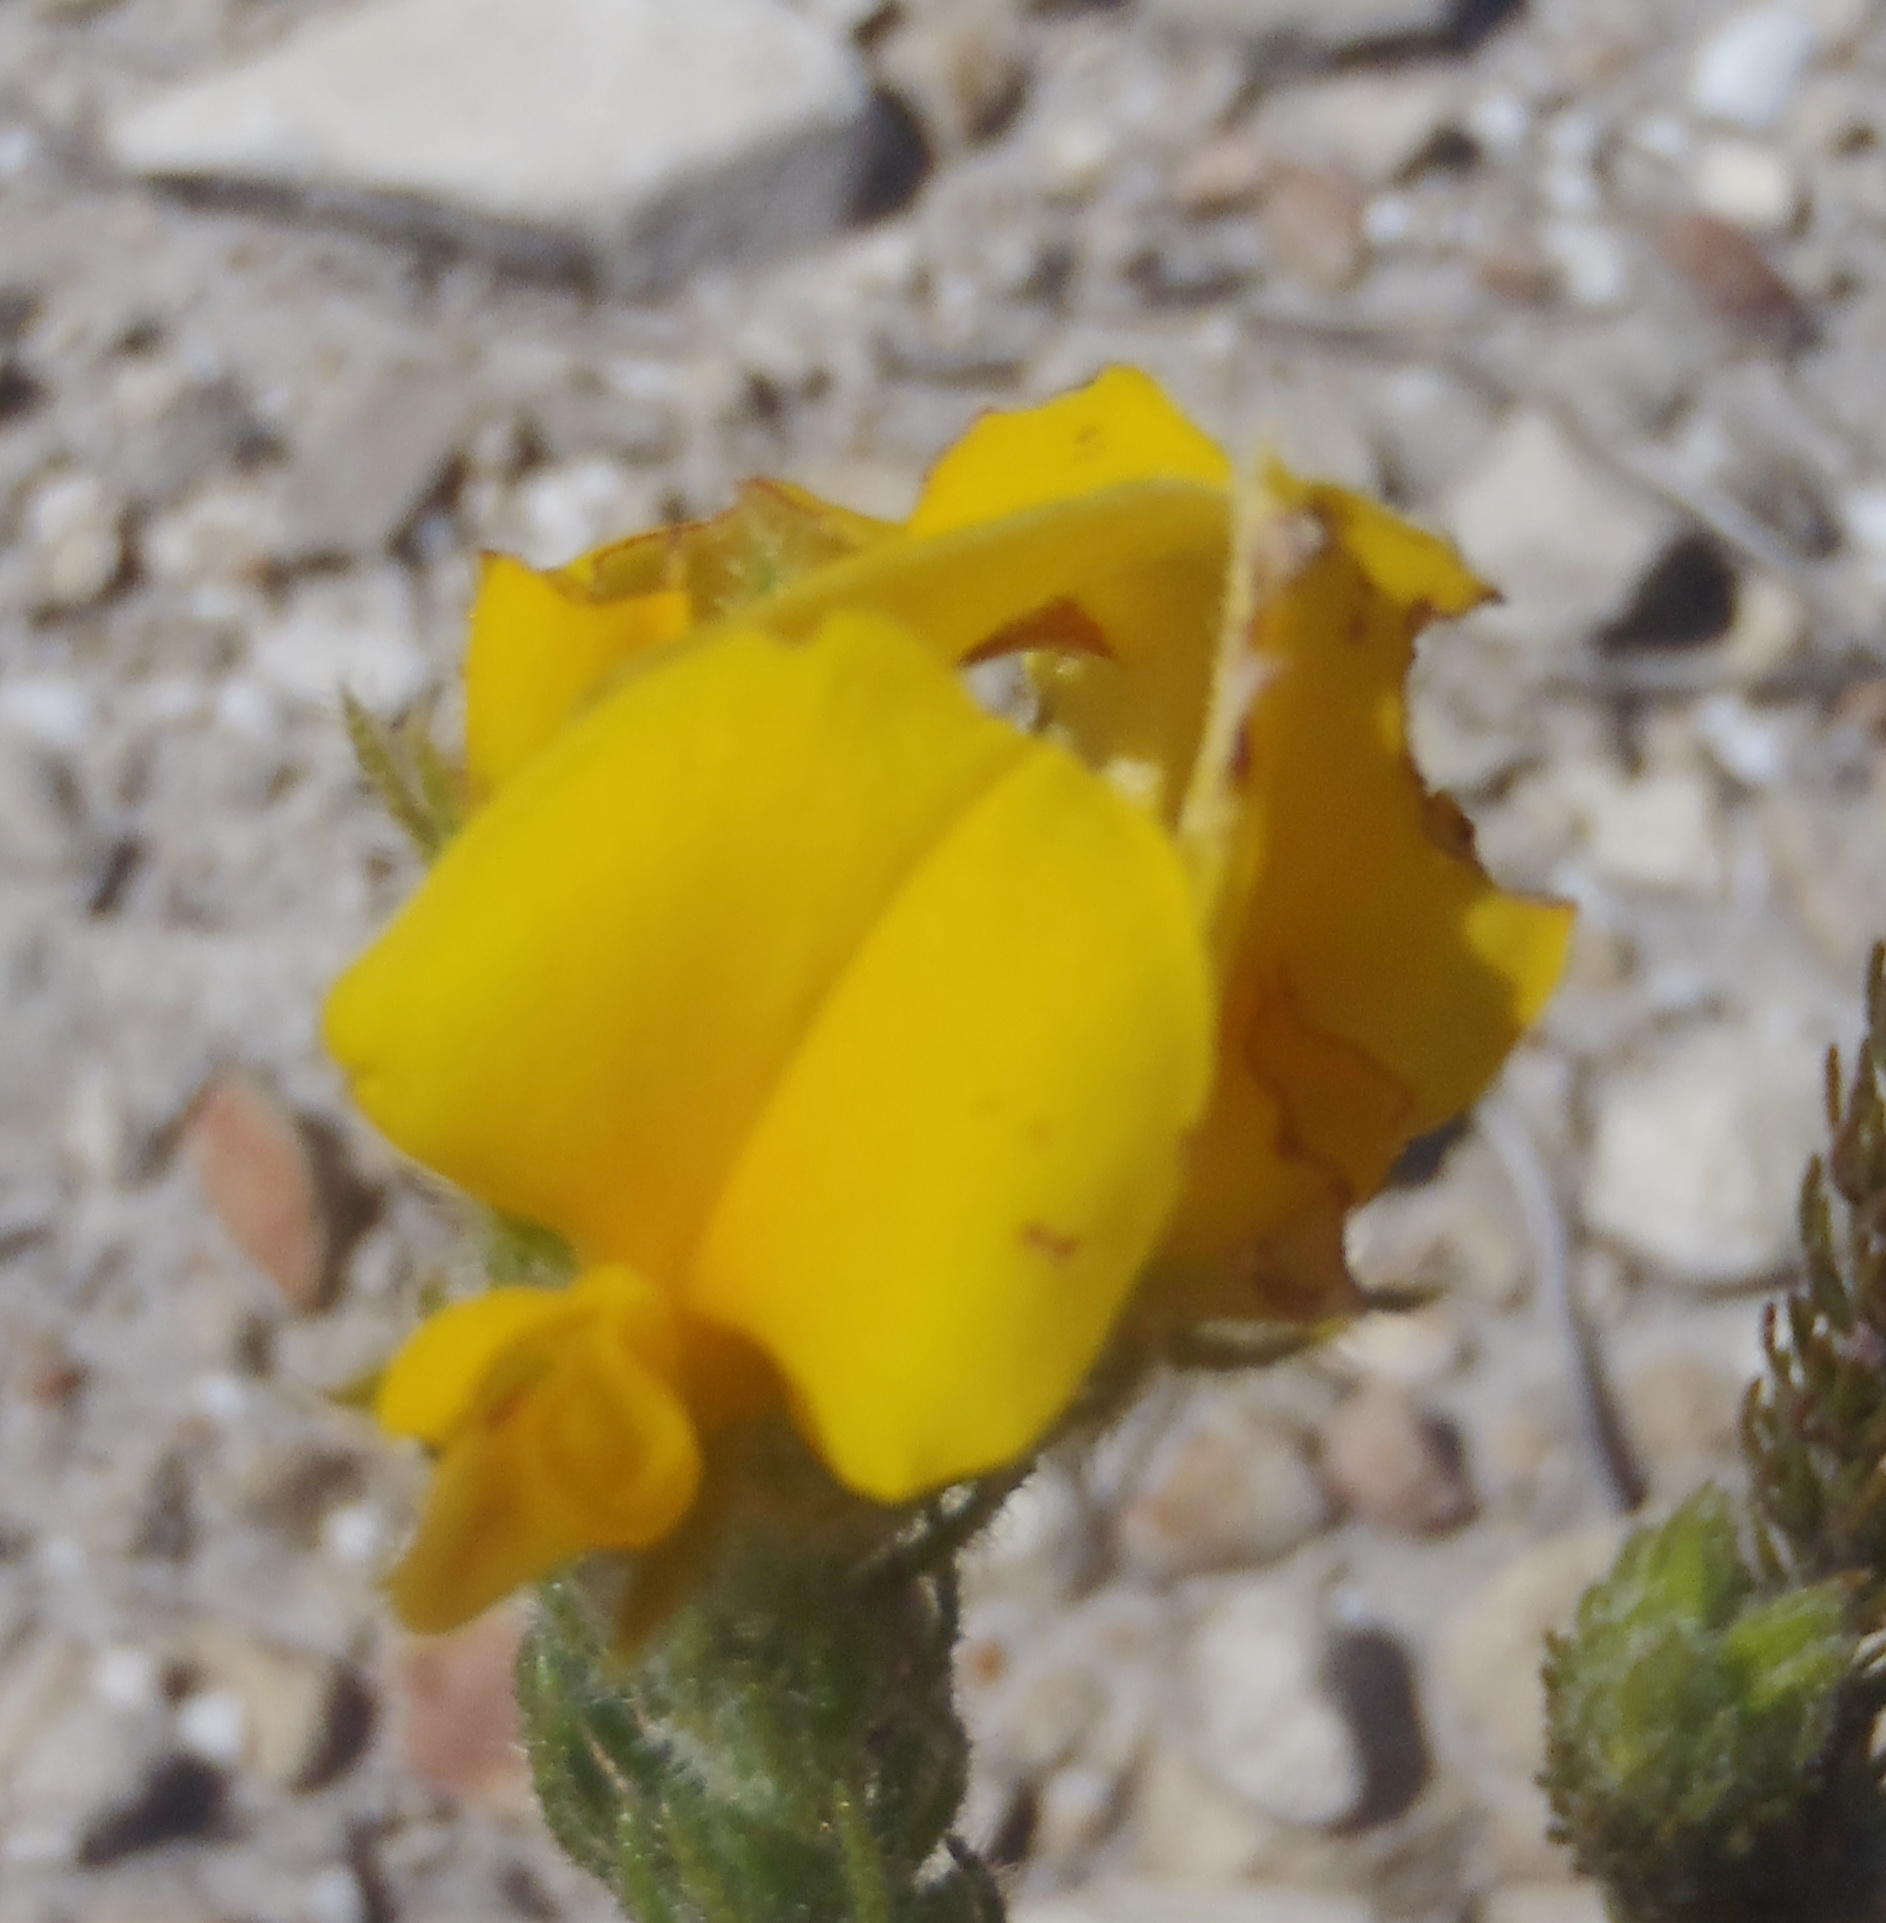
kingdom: Plantae
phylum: Tracheophyta
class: Magnoliopsida
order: Fabales
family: Fabaceae
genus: Aspalathus
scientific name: Aspalathus ciliaris
